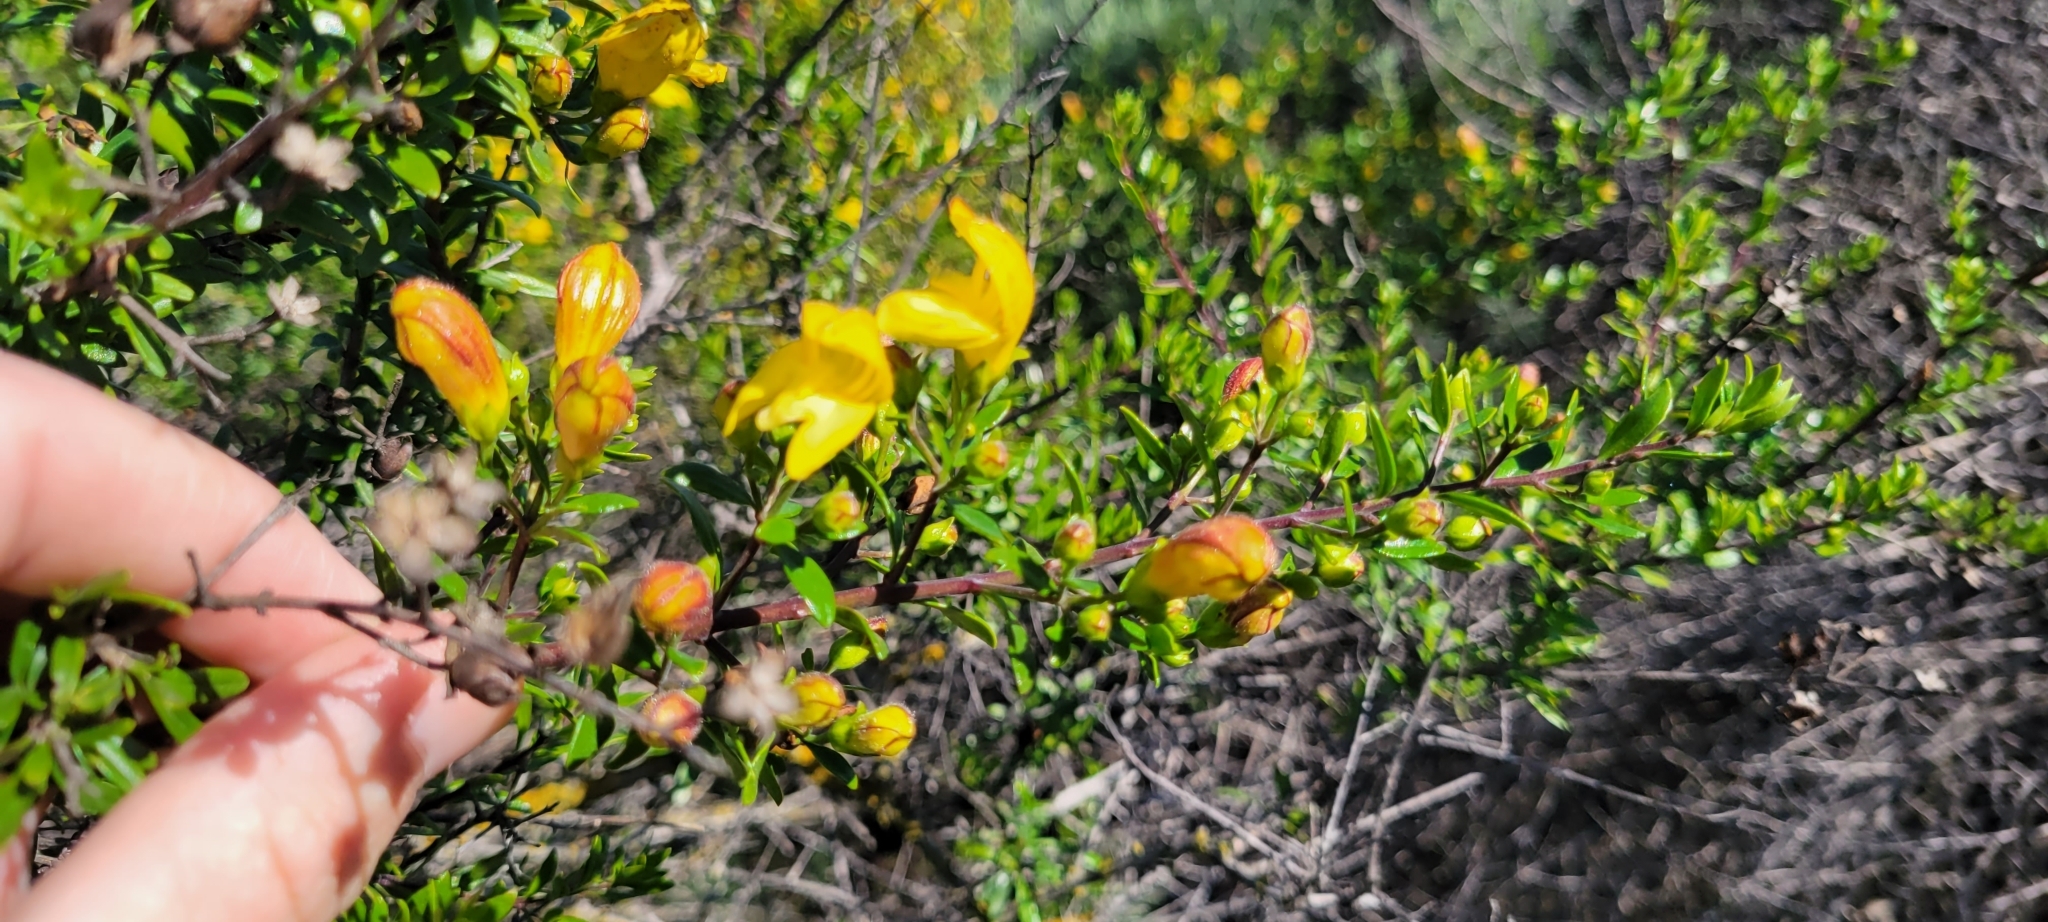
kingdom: Plantae
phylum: Tracheophyta
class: Magnoliopsida
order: Lamiales
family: Plantaginaceae
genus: Keckiella
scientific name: Keckiella antirrhinoides
